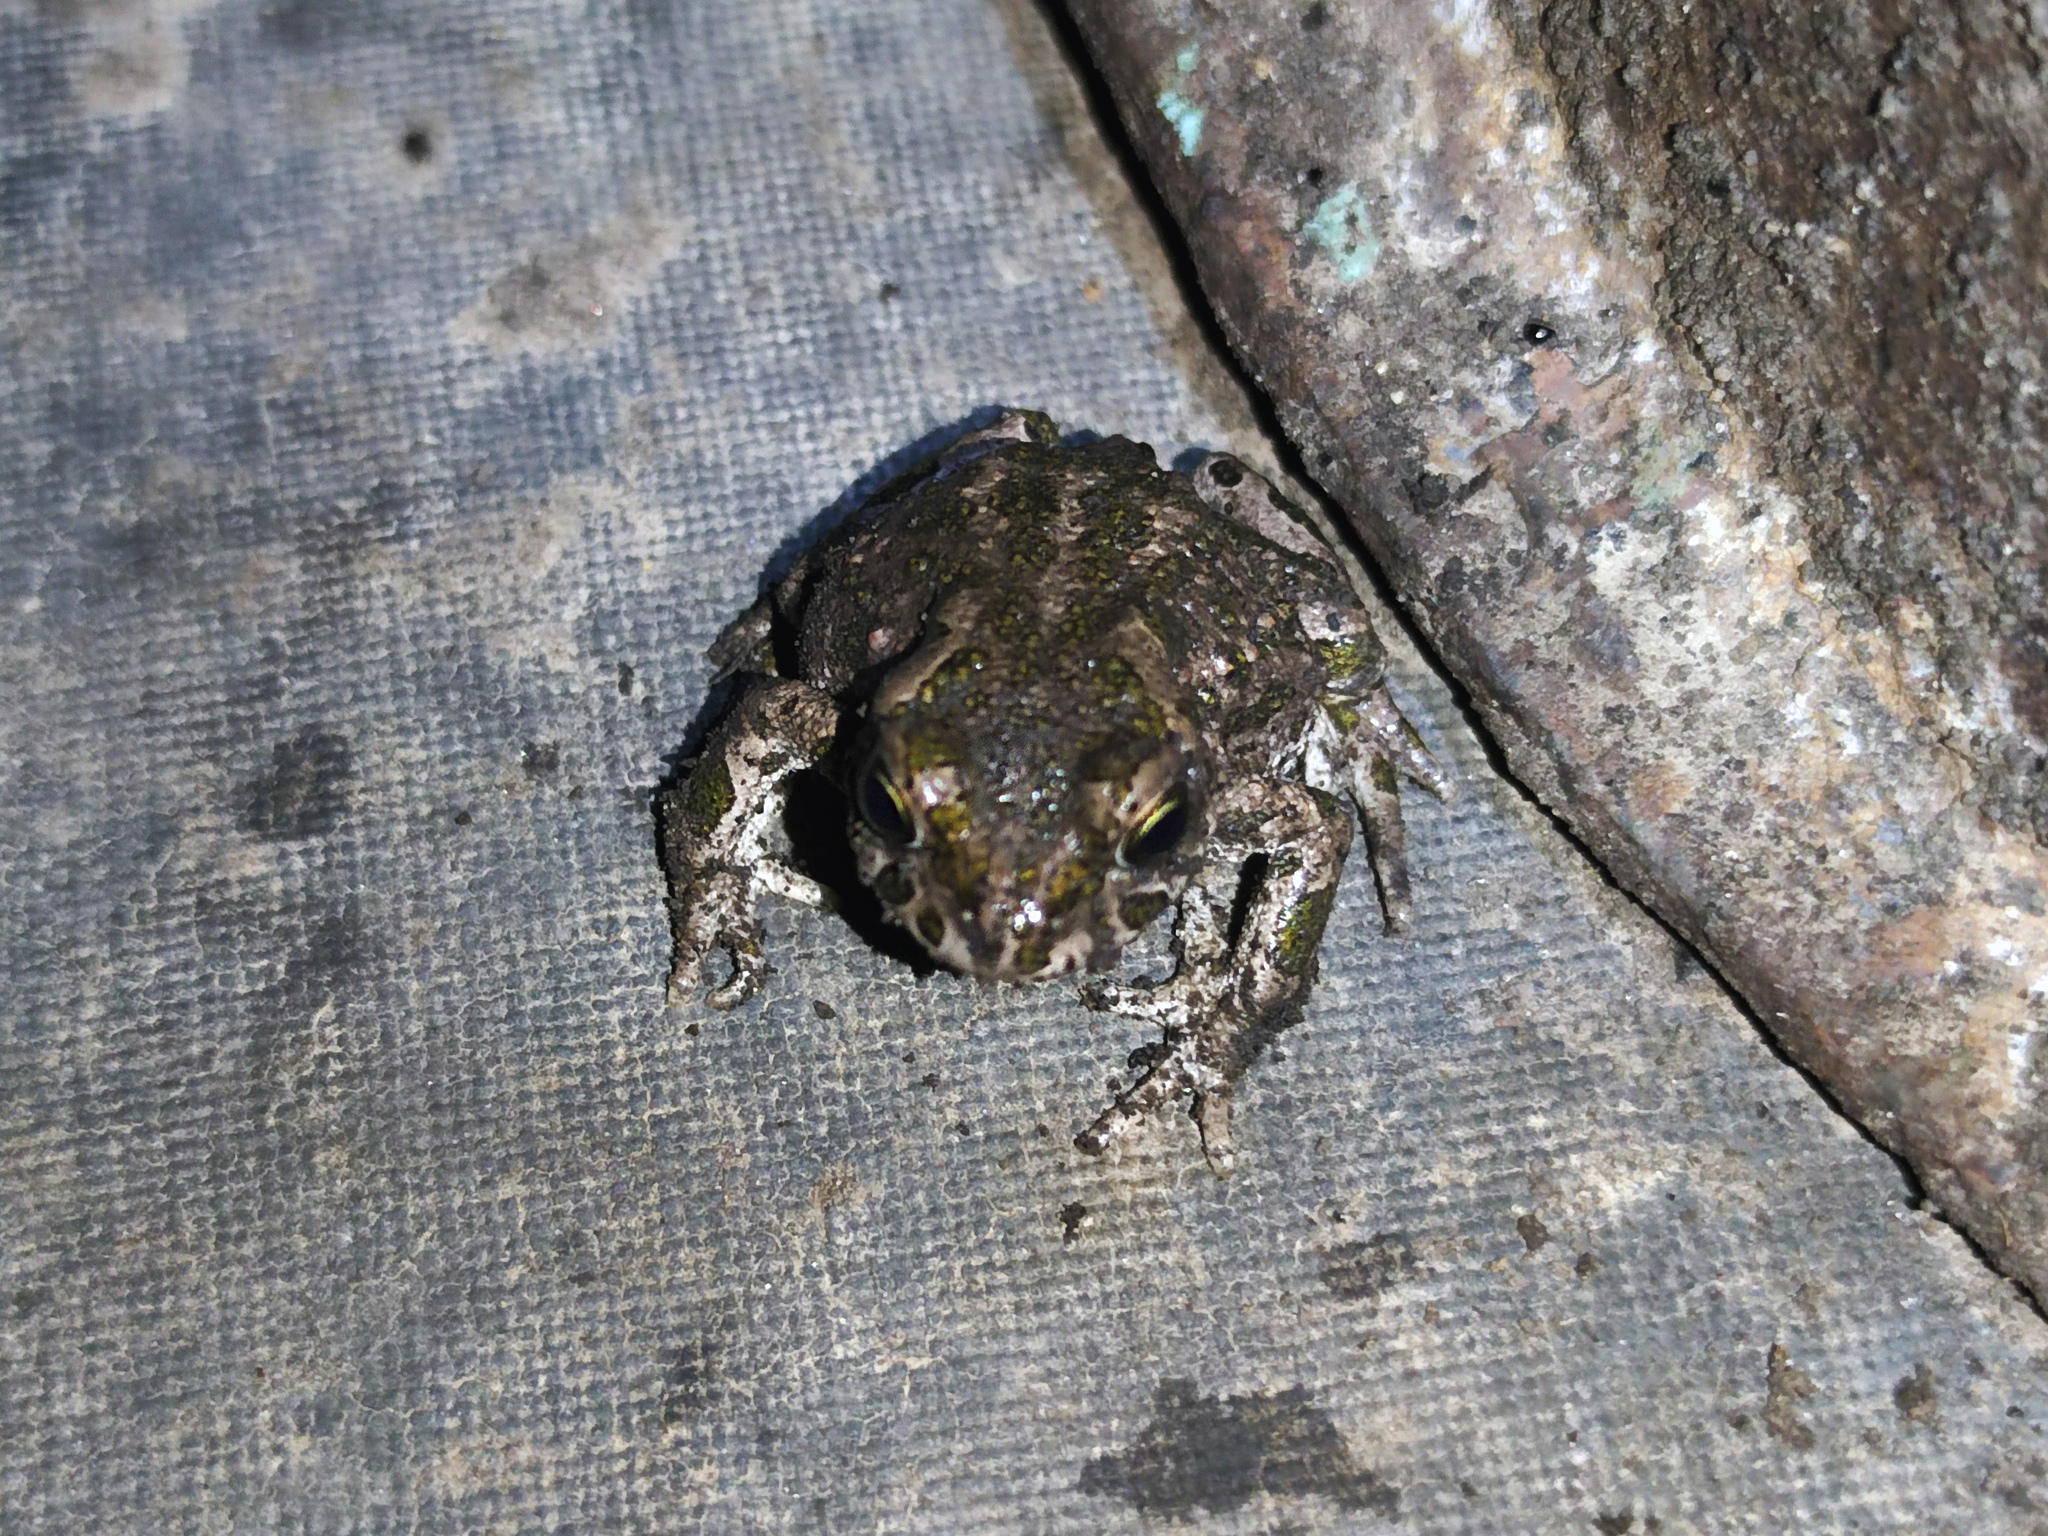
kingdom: Animalia
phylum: Chordata
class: Amphibia
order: Anura
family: Bufonidae
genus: Bufotes
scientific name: Bufotes viridis
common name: European green toad
